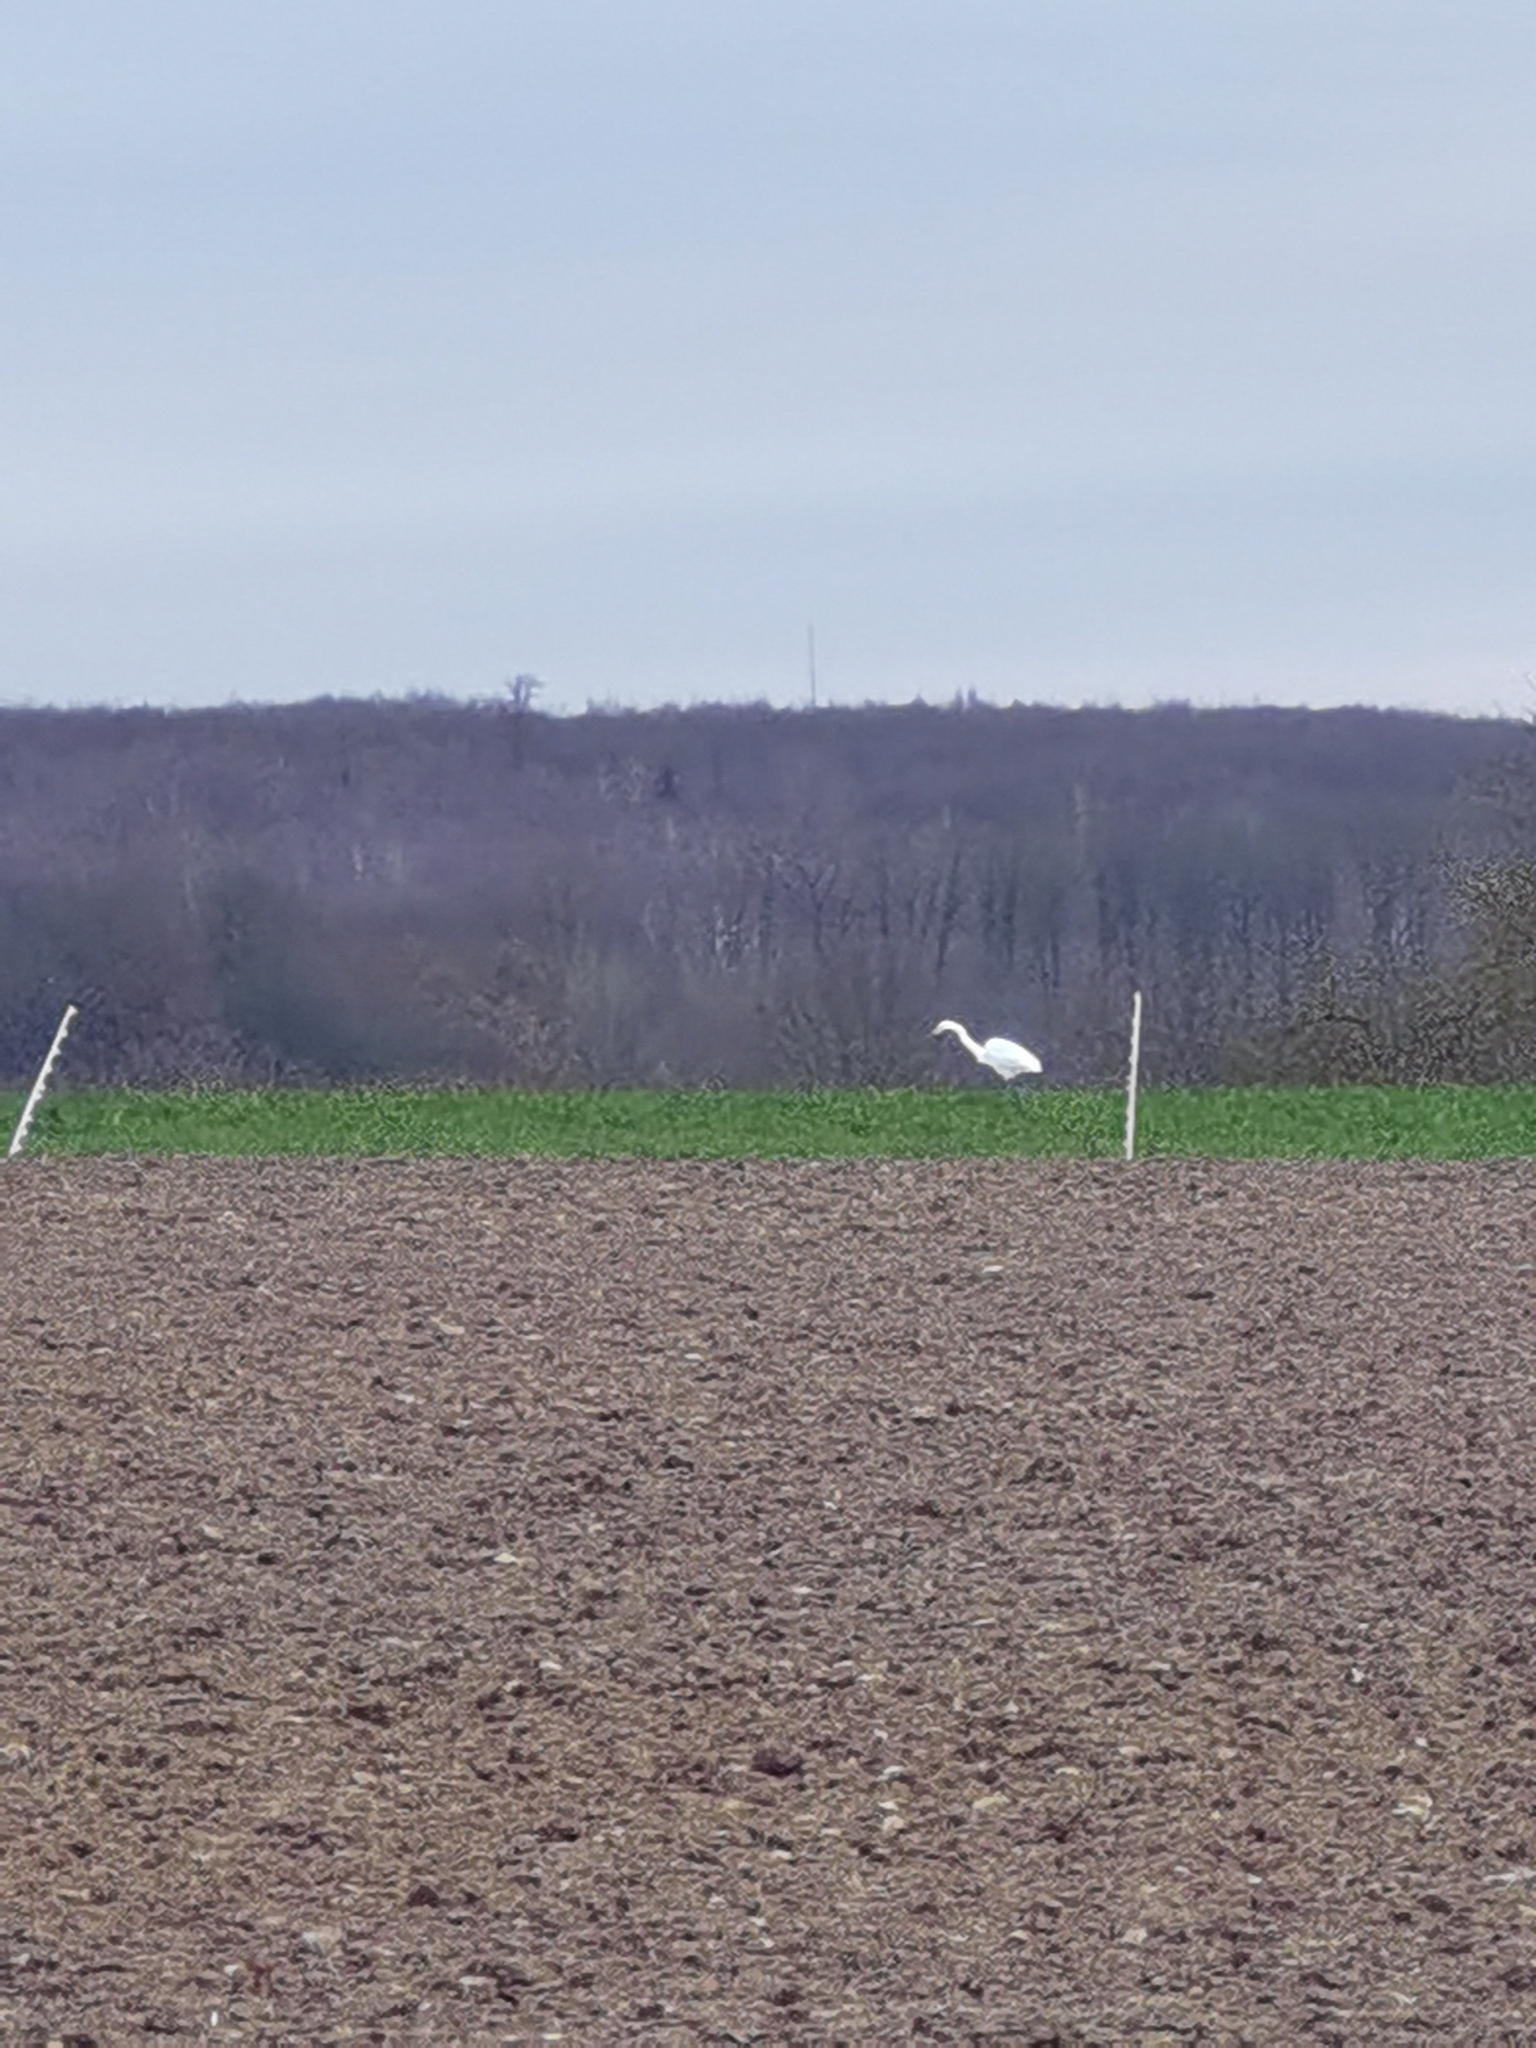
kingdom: Animalia
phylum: Chordata
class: Aves
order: Pelecaniformes
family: Ardeidae
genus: Ardea
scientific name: Ardea alba
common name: Great egret
